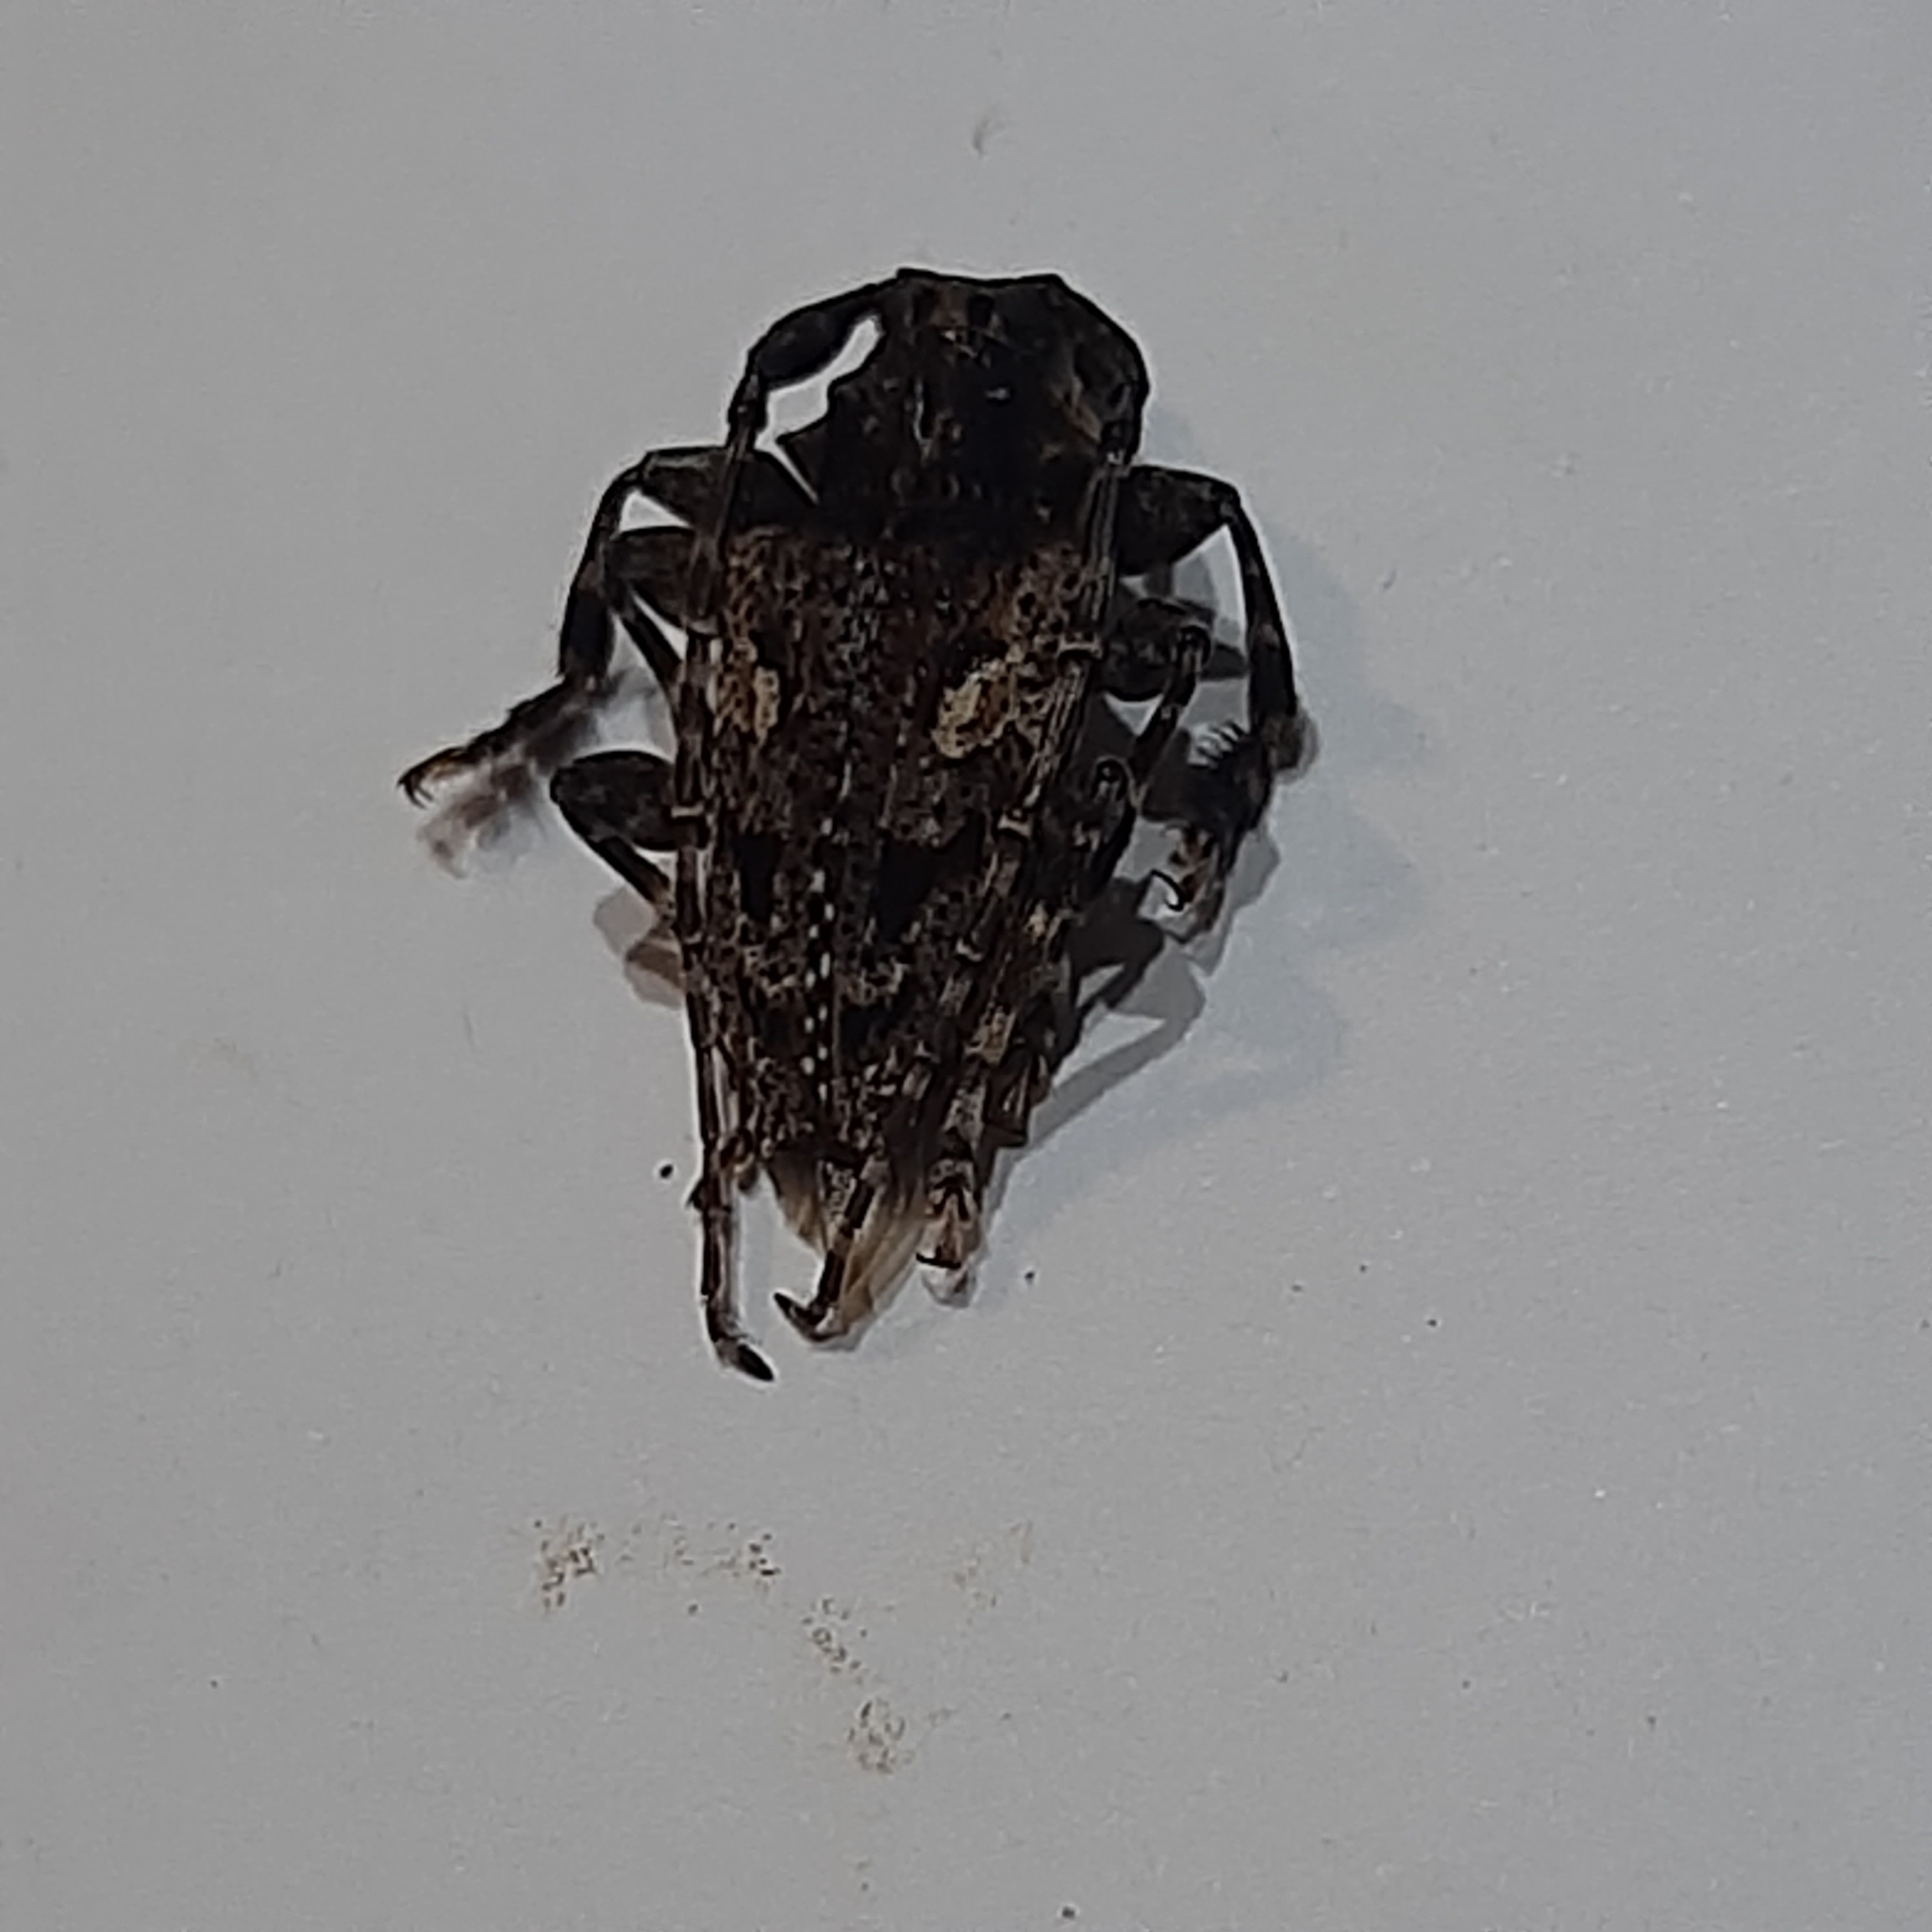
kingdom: Animalia
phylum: Arthropoda
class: Insecta
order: Coleoptera
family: Cerambycidae
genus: Psapharochrus
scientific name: Psapharochrus circumflexus
